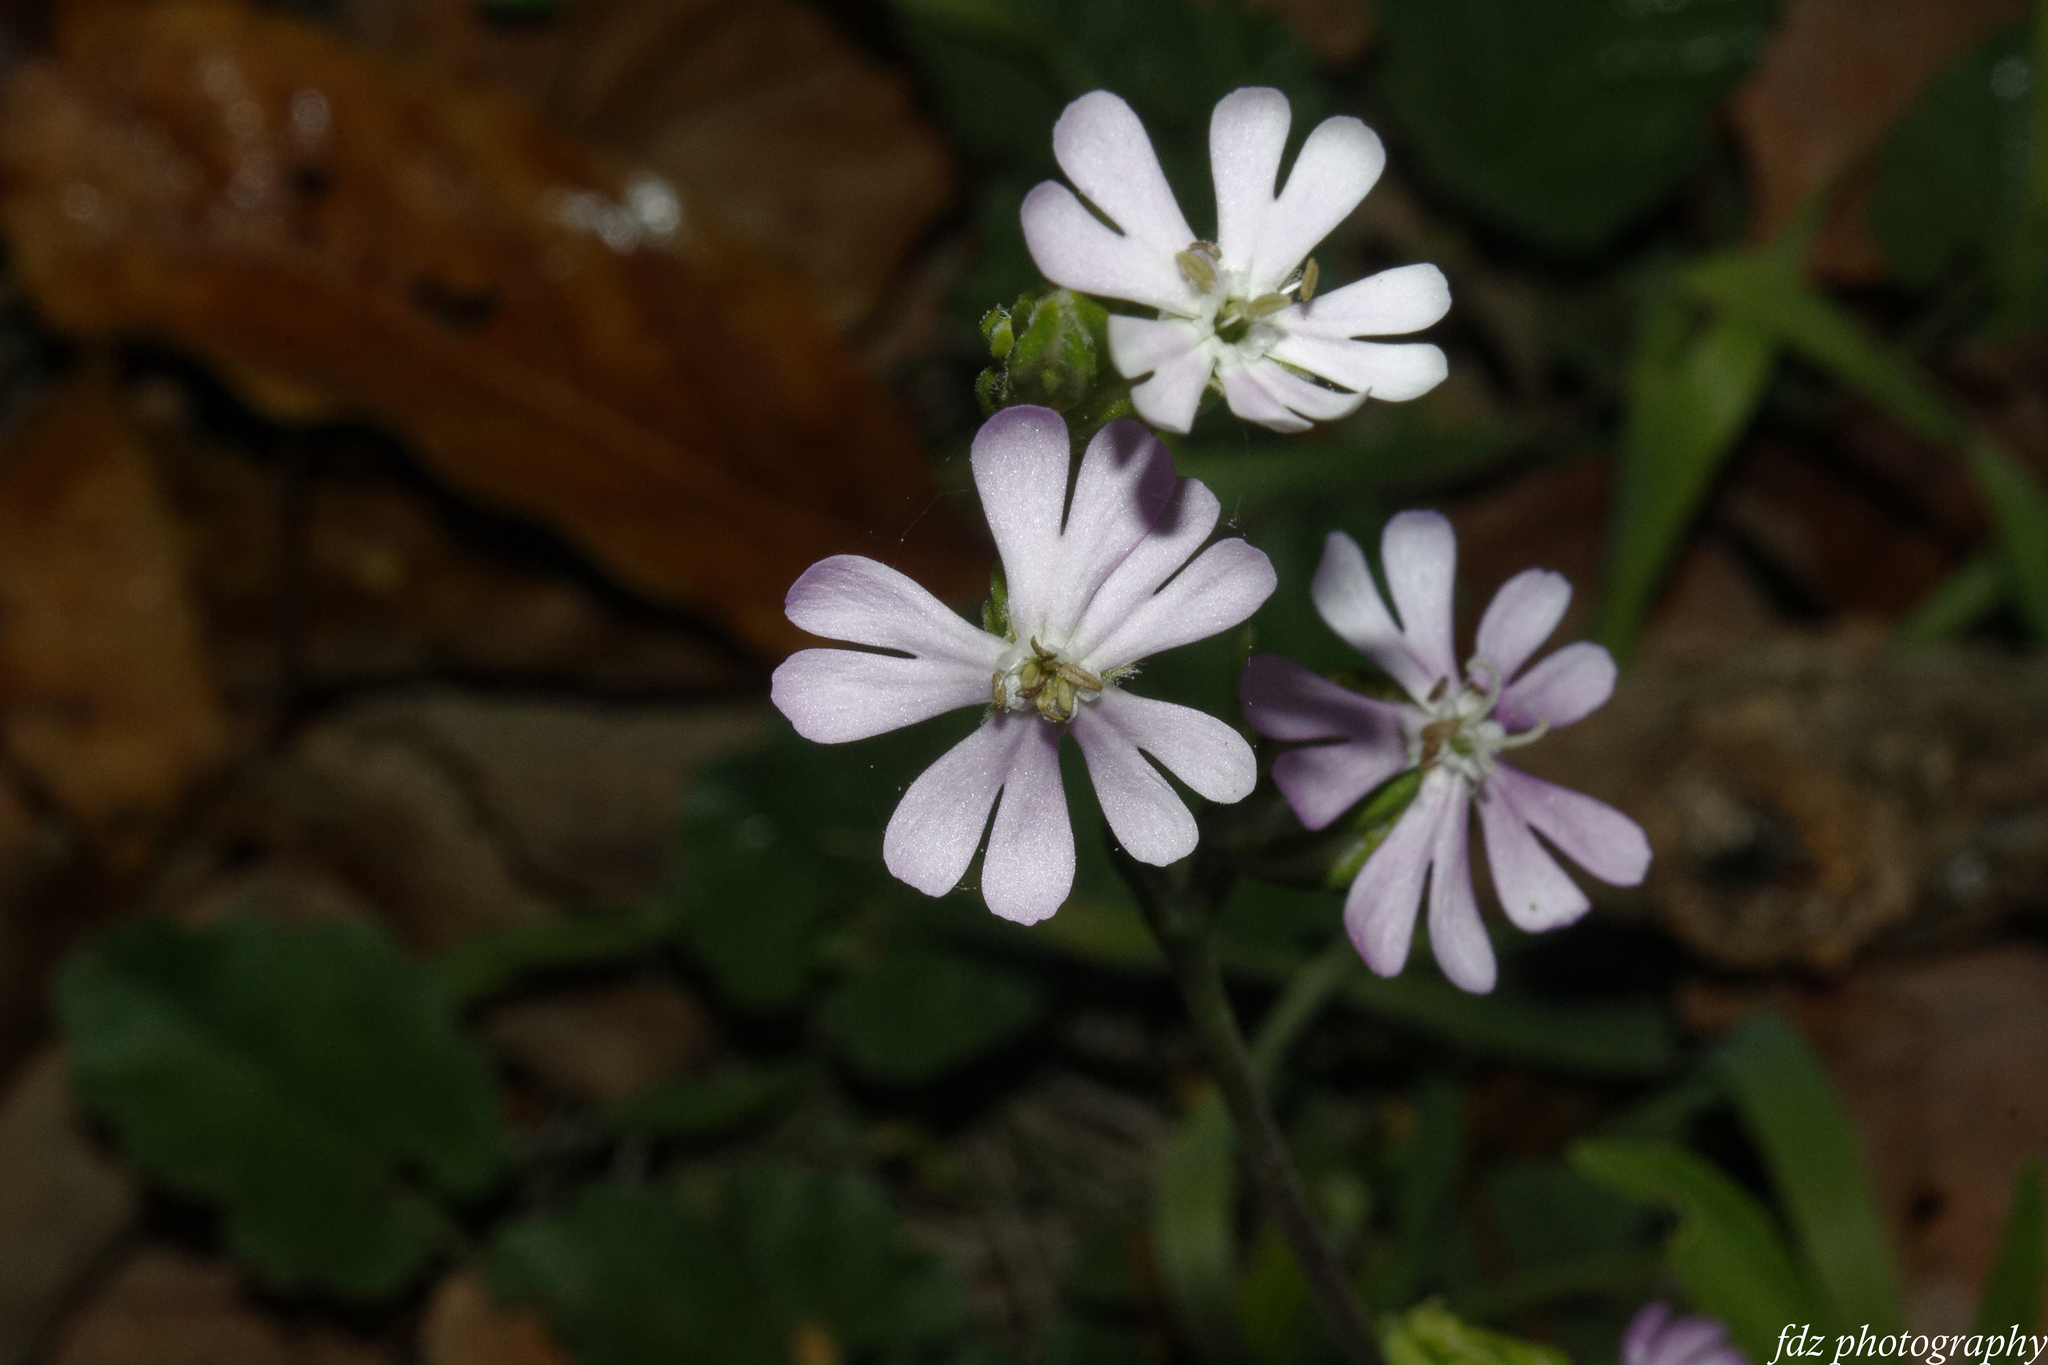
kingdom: Plantae
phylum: Tracheophyta
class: Magnoliopsida
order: Caryophyllales
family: Caryophyllaceae
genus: Silene
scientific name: Silene colorata
